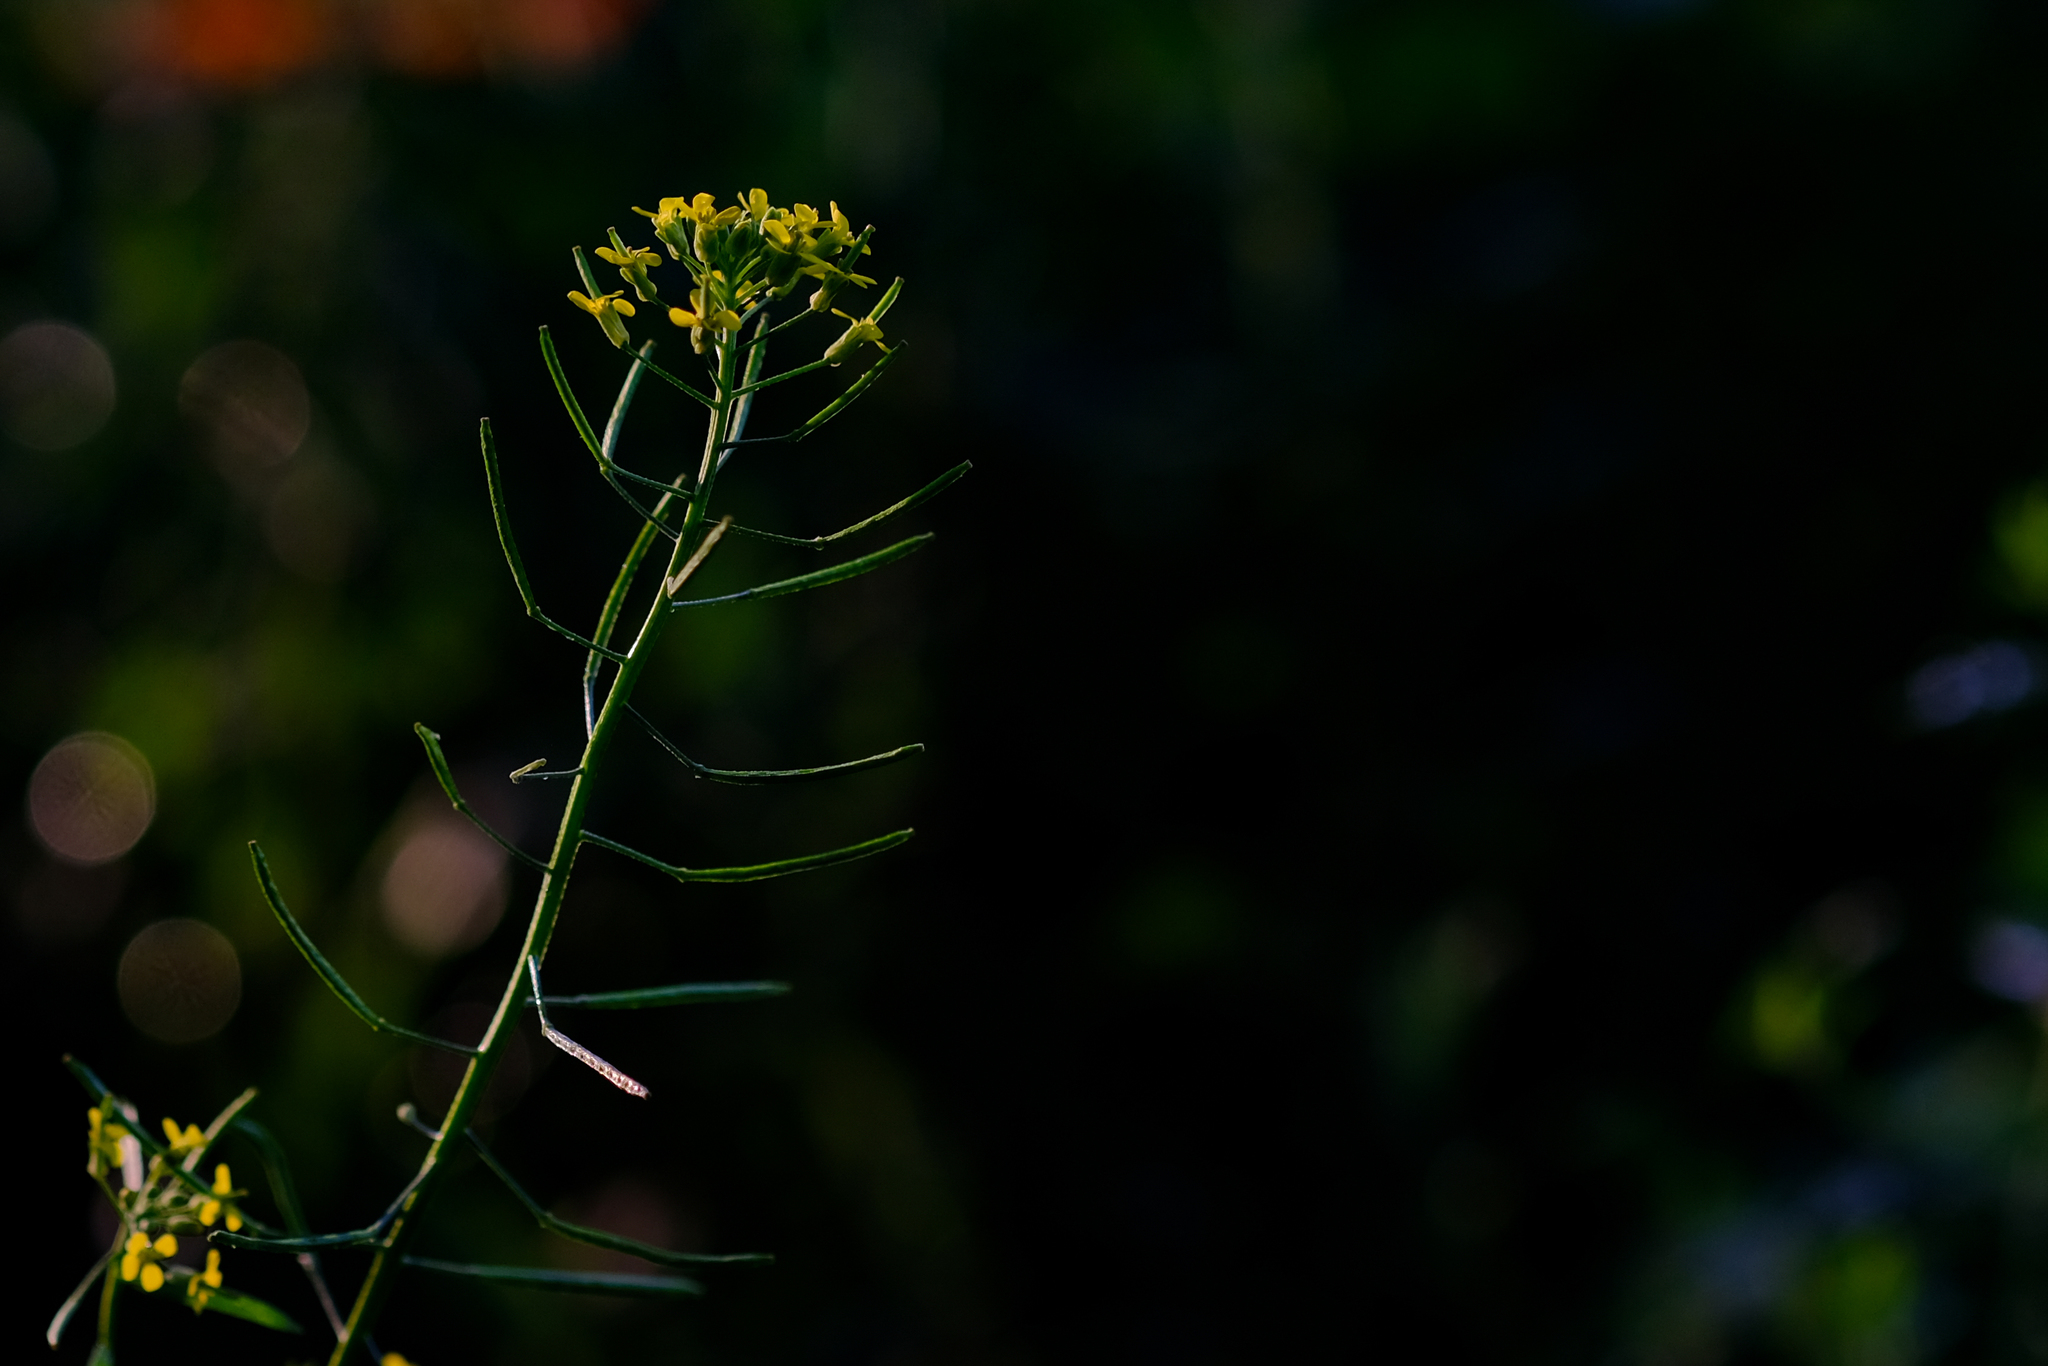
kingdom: Plantae
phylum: Tracheophyta
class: Magnoliopsida
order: Brassicales
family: Brassicaceae
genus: Erysimum
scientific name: Erysimum cheiranthoides
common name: Treacle mustard
